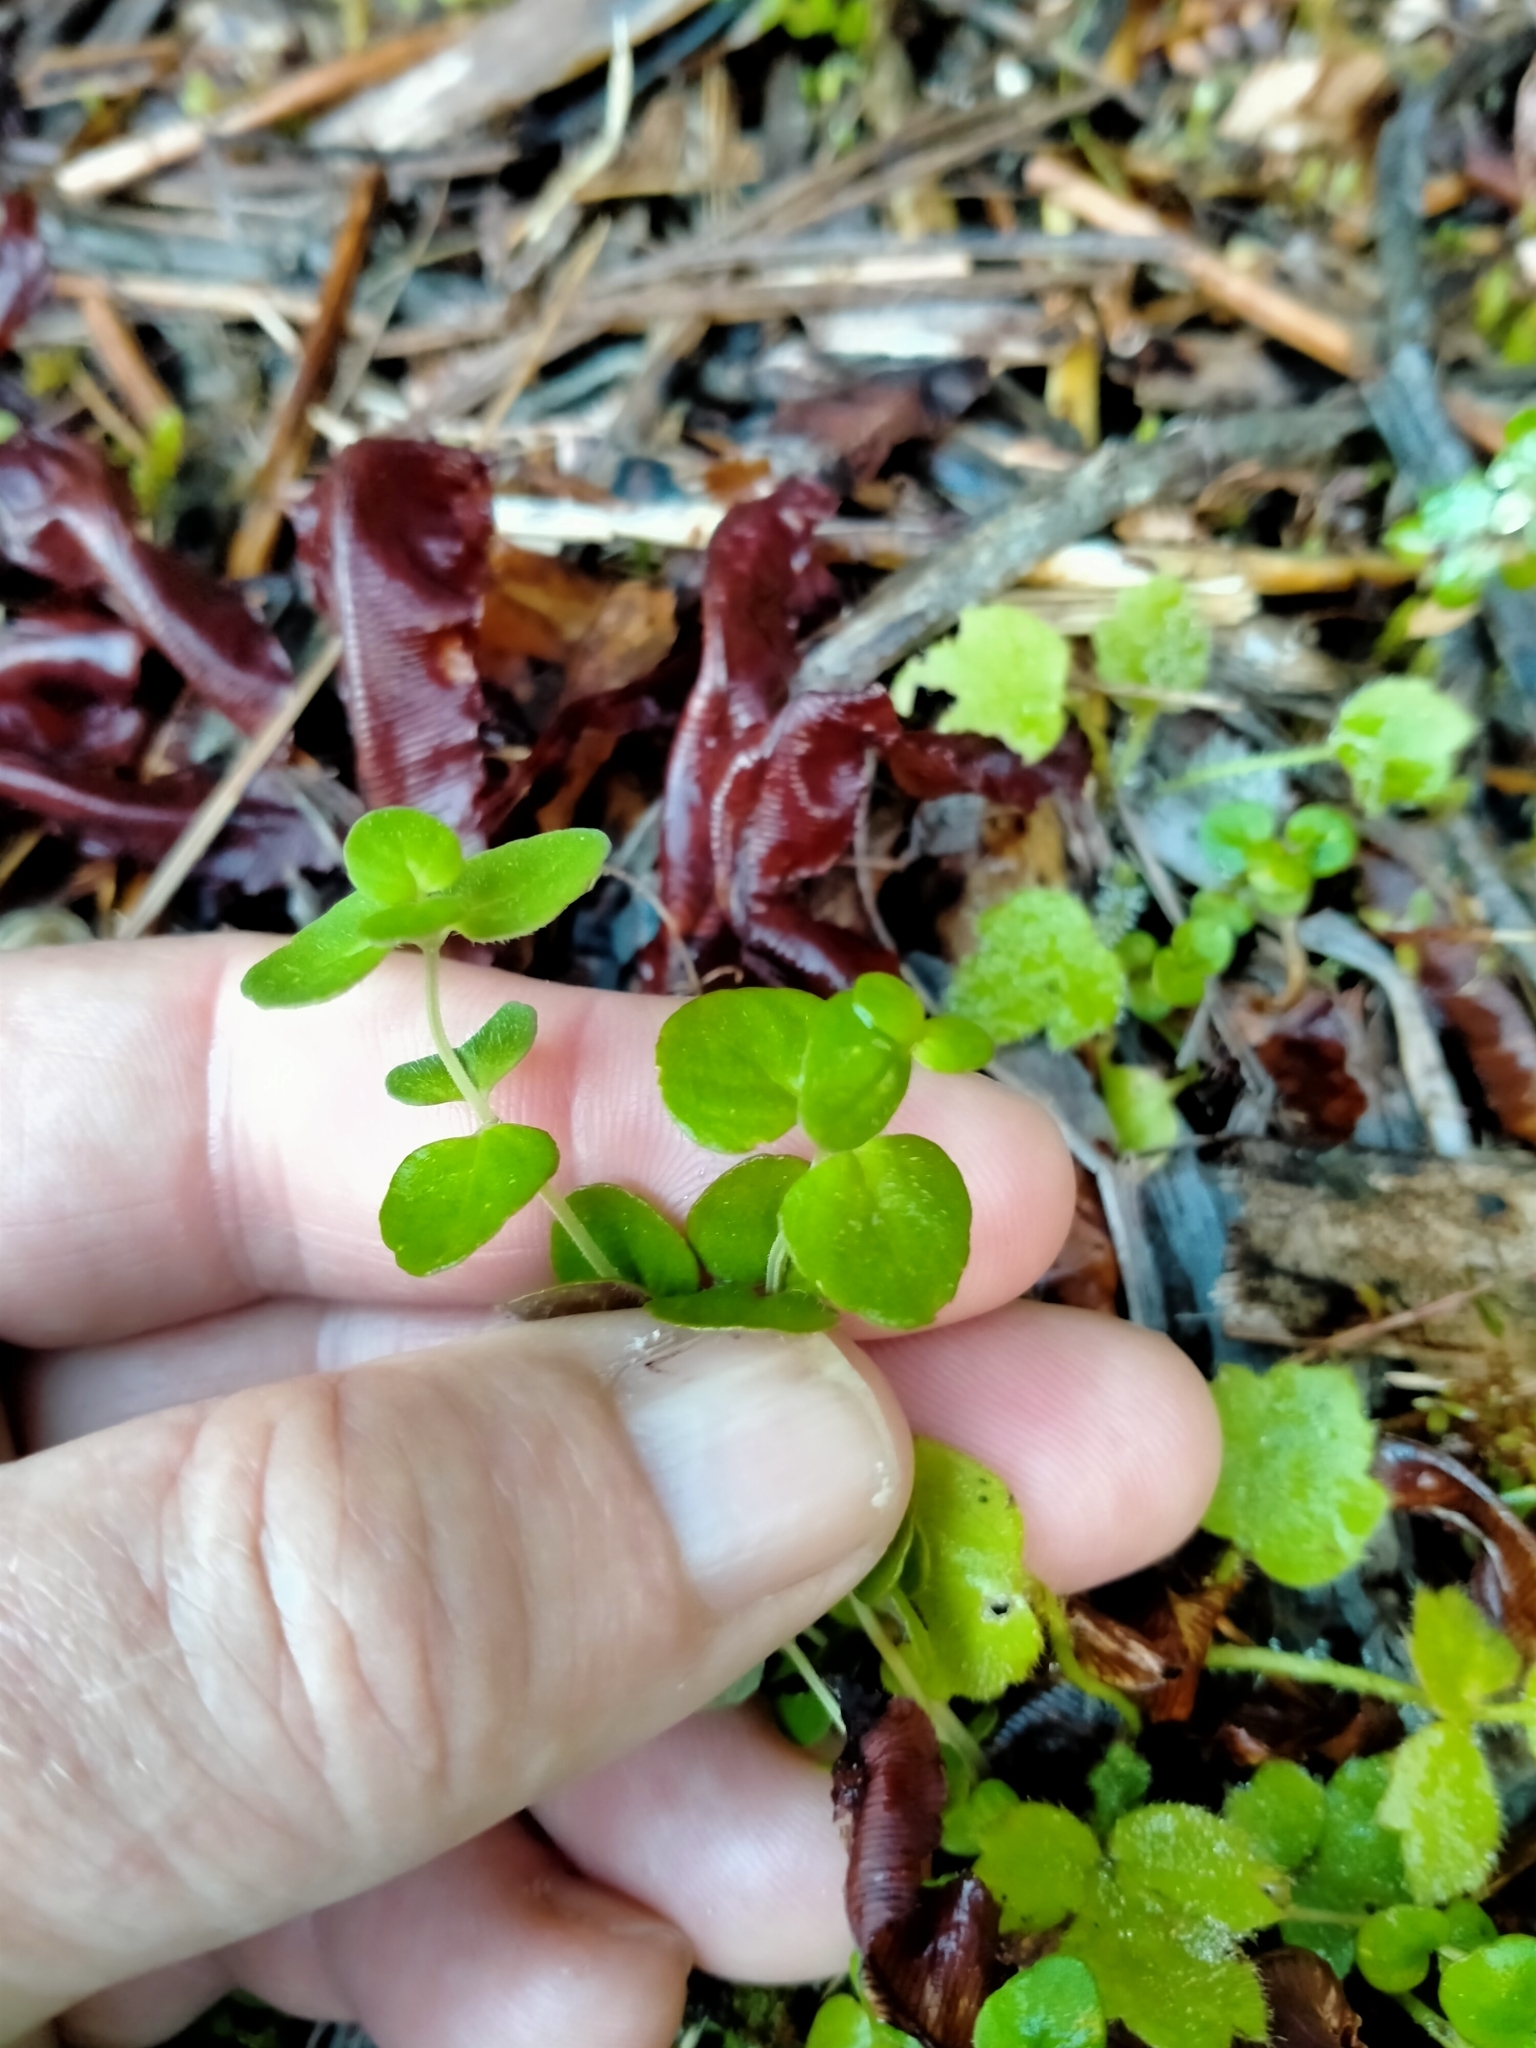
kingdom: Plantae
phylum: Tracheophyta
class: Magnoliopsida
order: Lamiales
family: Lamiaceae
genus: Mentha
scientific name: Mentha cunninghamii
